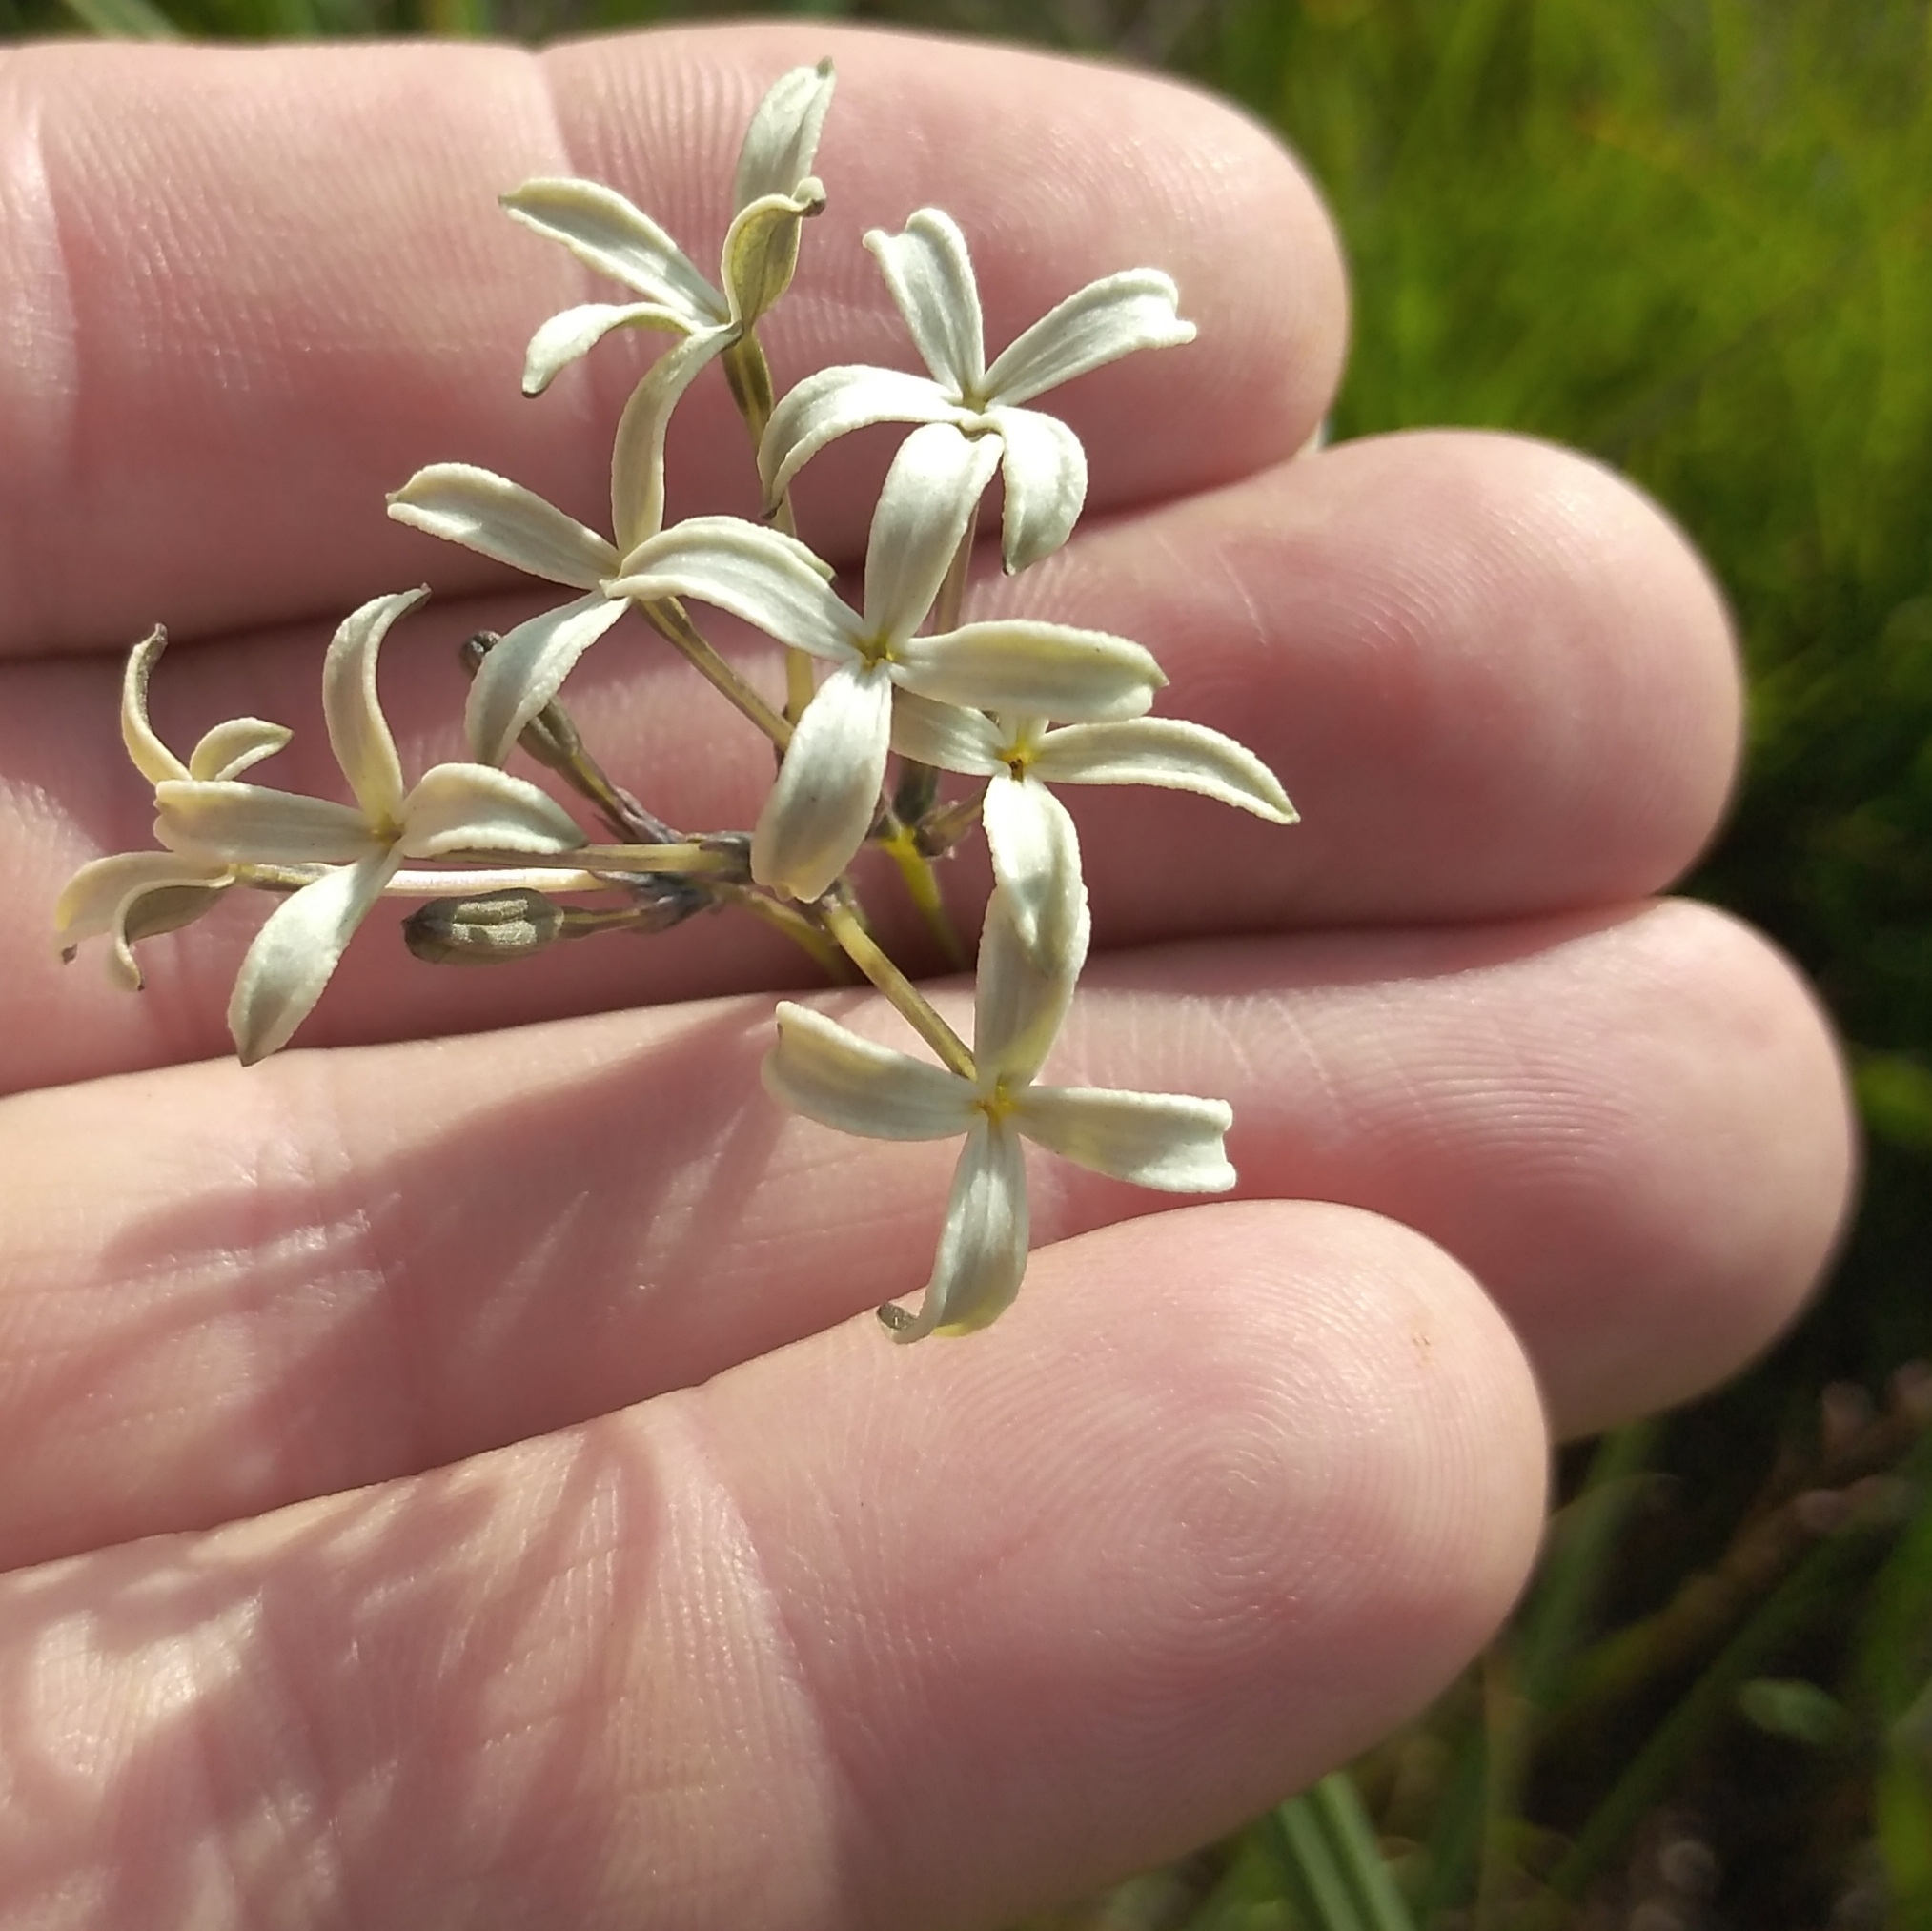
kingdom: Plantae
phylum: Tracheophyta
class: Magnoliopsida
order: Gentianales
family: Rubiaceae
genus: Kohautia
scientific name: Kohautia amatymbica
